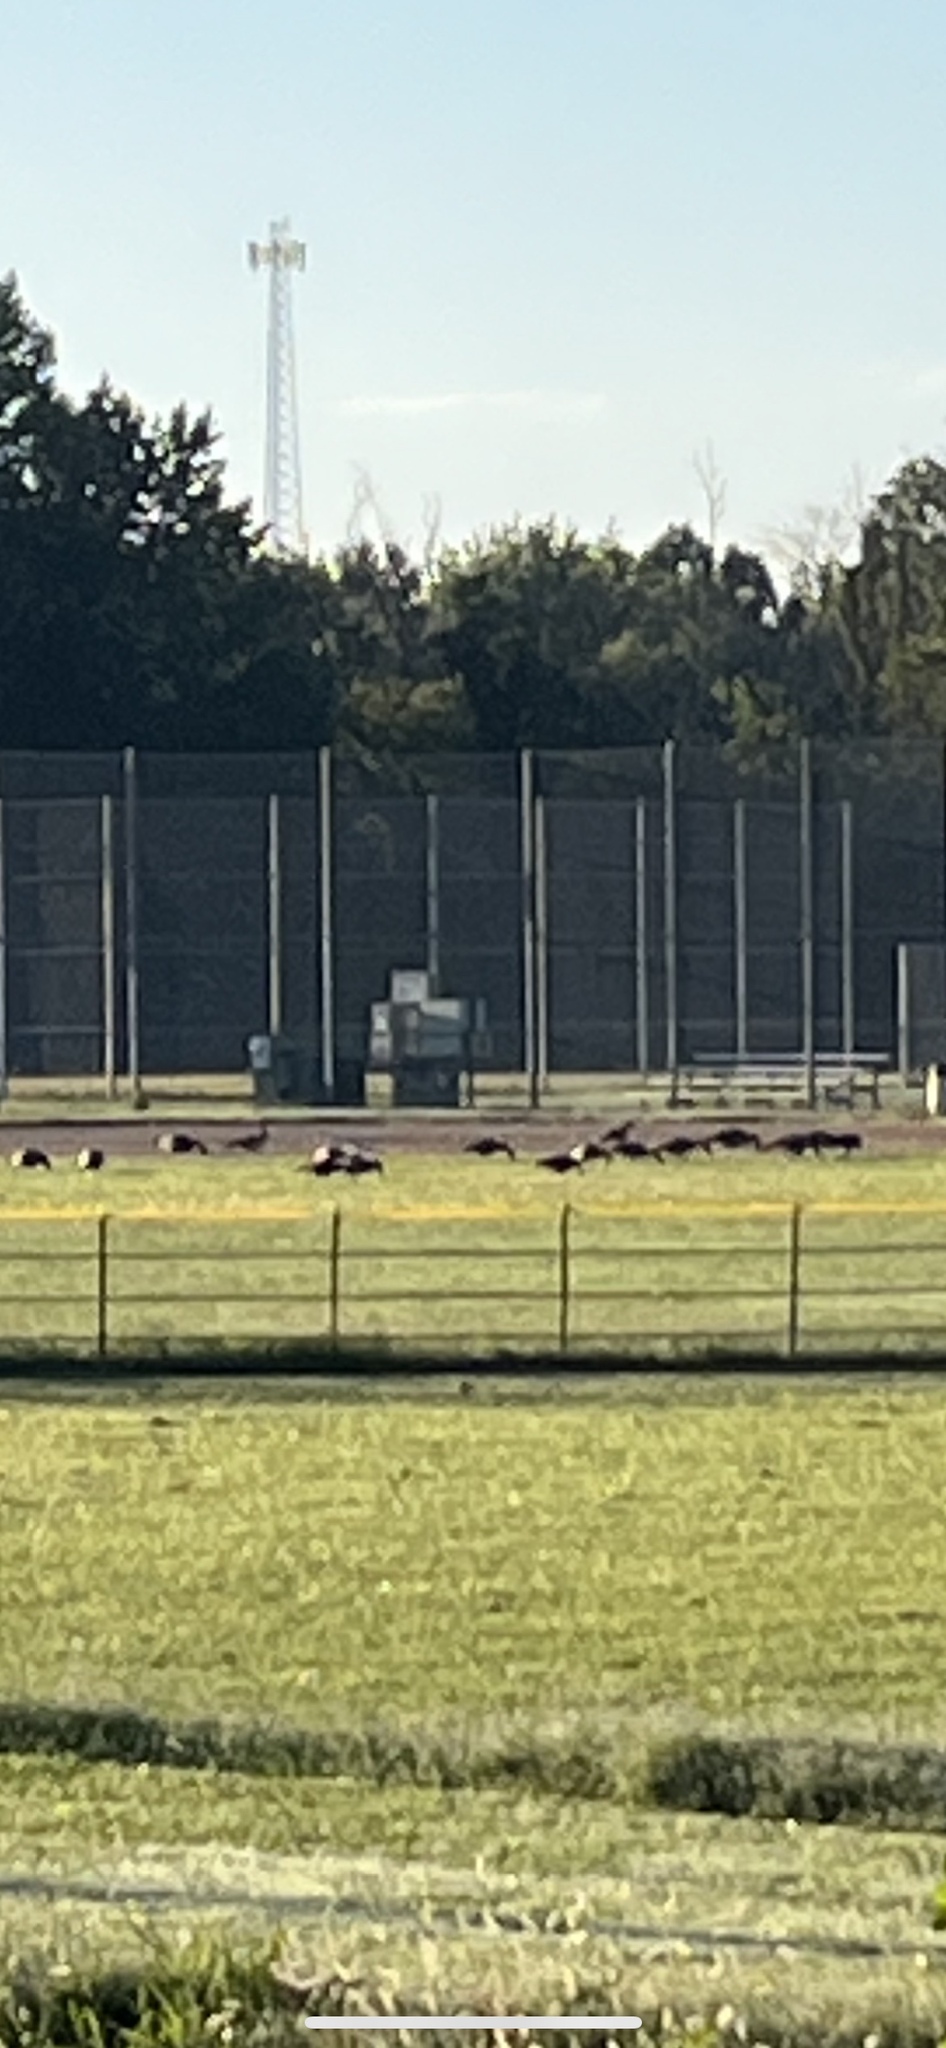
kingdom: Animalia
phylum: Chordata
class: Aves
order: Anseriformes
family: Anatidae
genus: Branta
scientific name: Branta canadensis
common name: Canada goose
